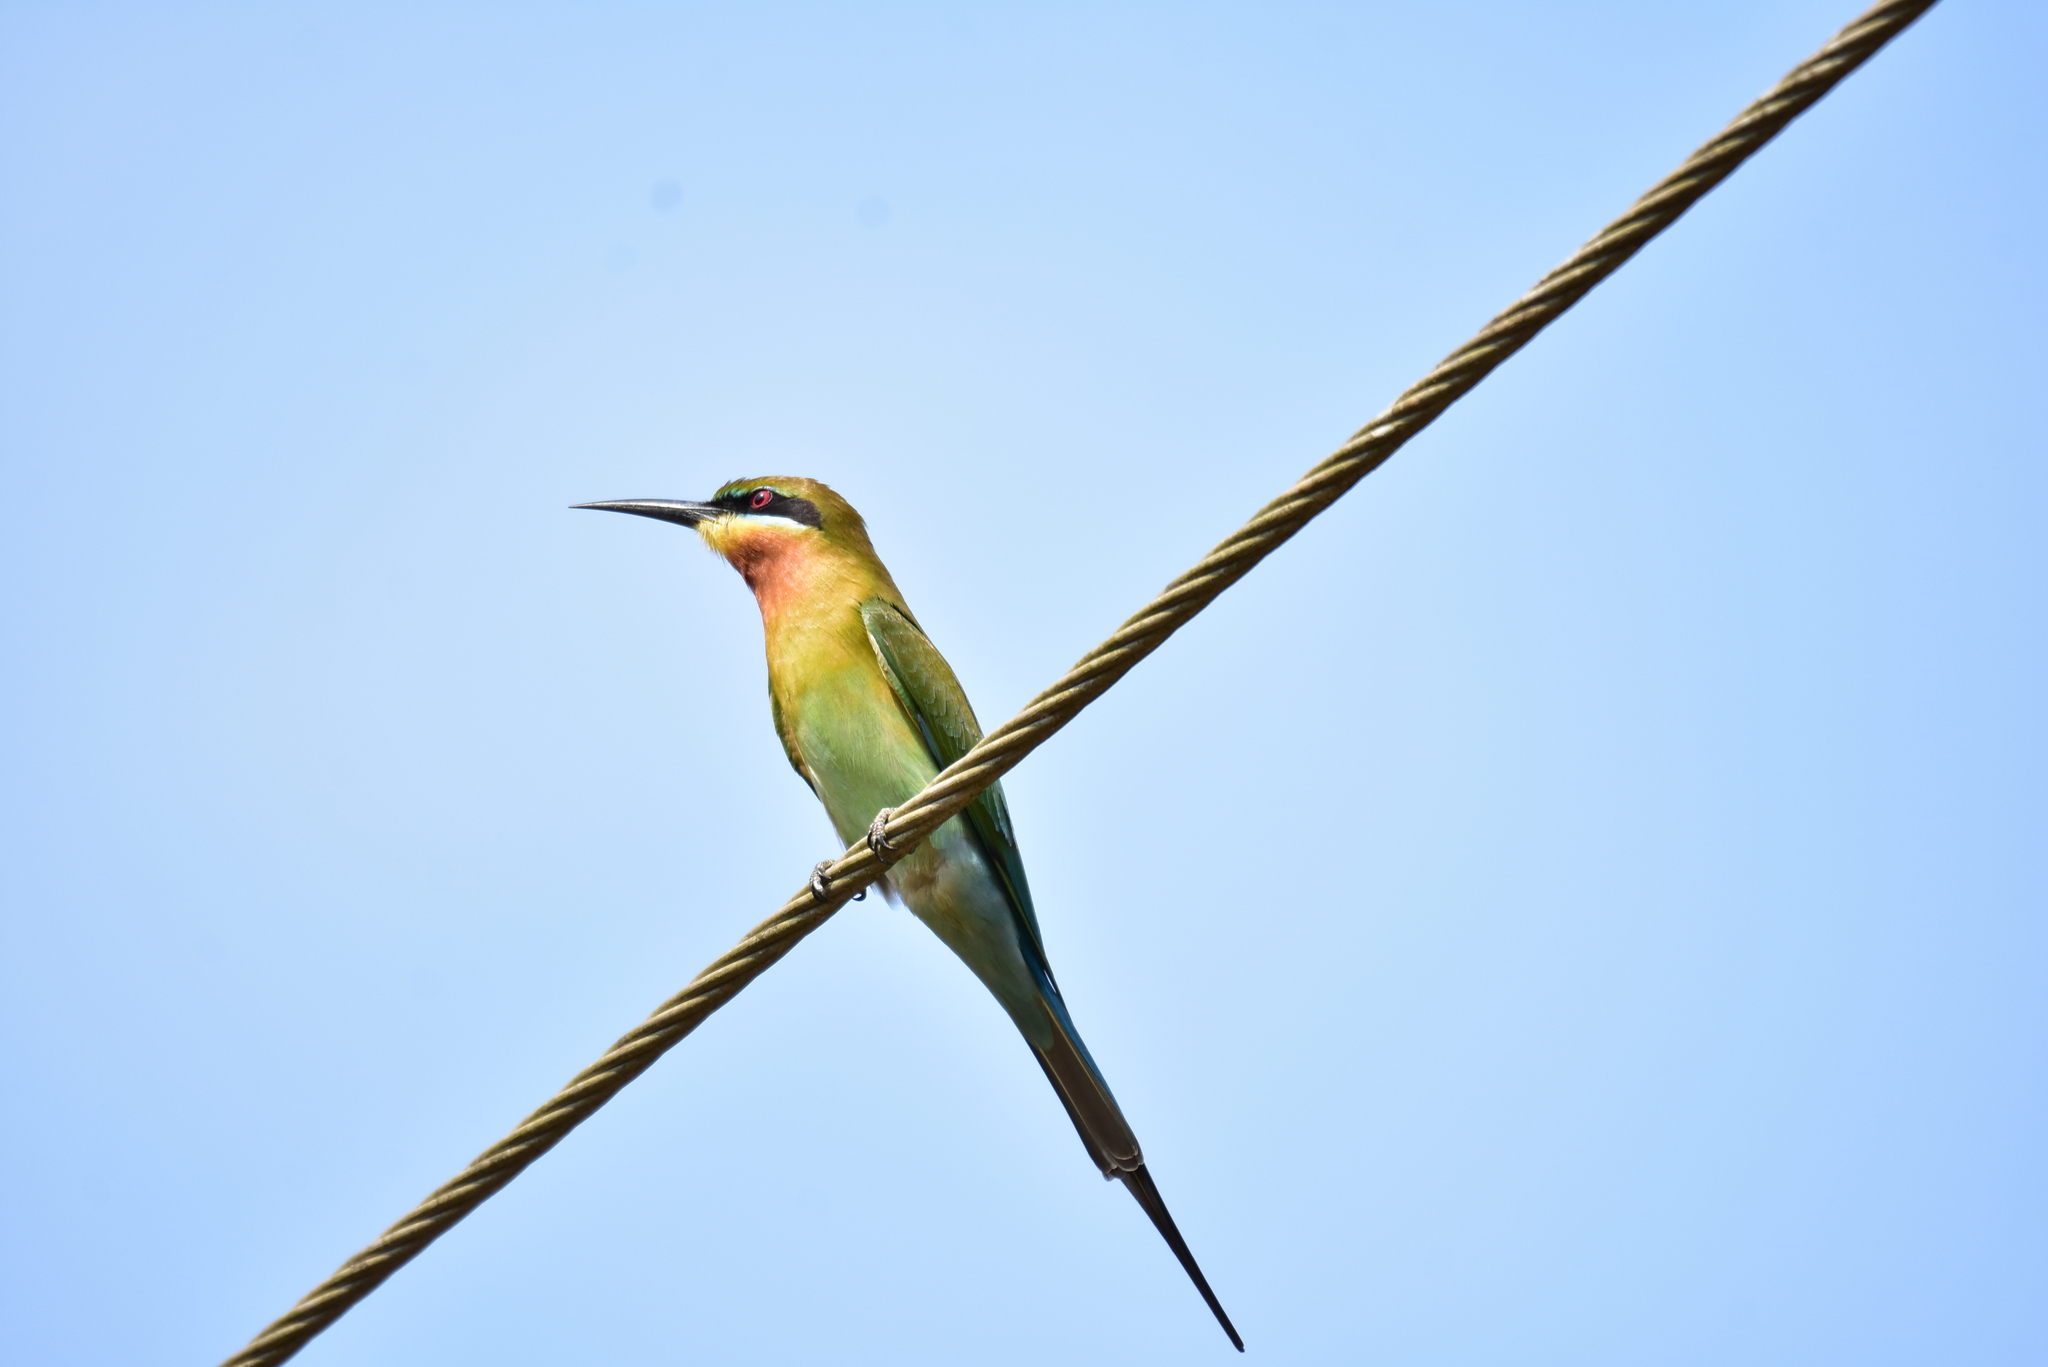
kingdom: Animalia
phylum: Chordata
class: Aves
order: Coraciiformes
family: Meropidae
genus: Merops
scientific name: Merops philippinus
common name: Blue-tailed bee-eater
